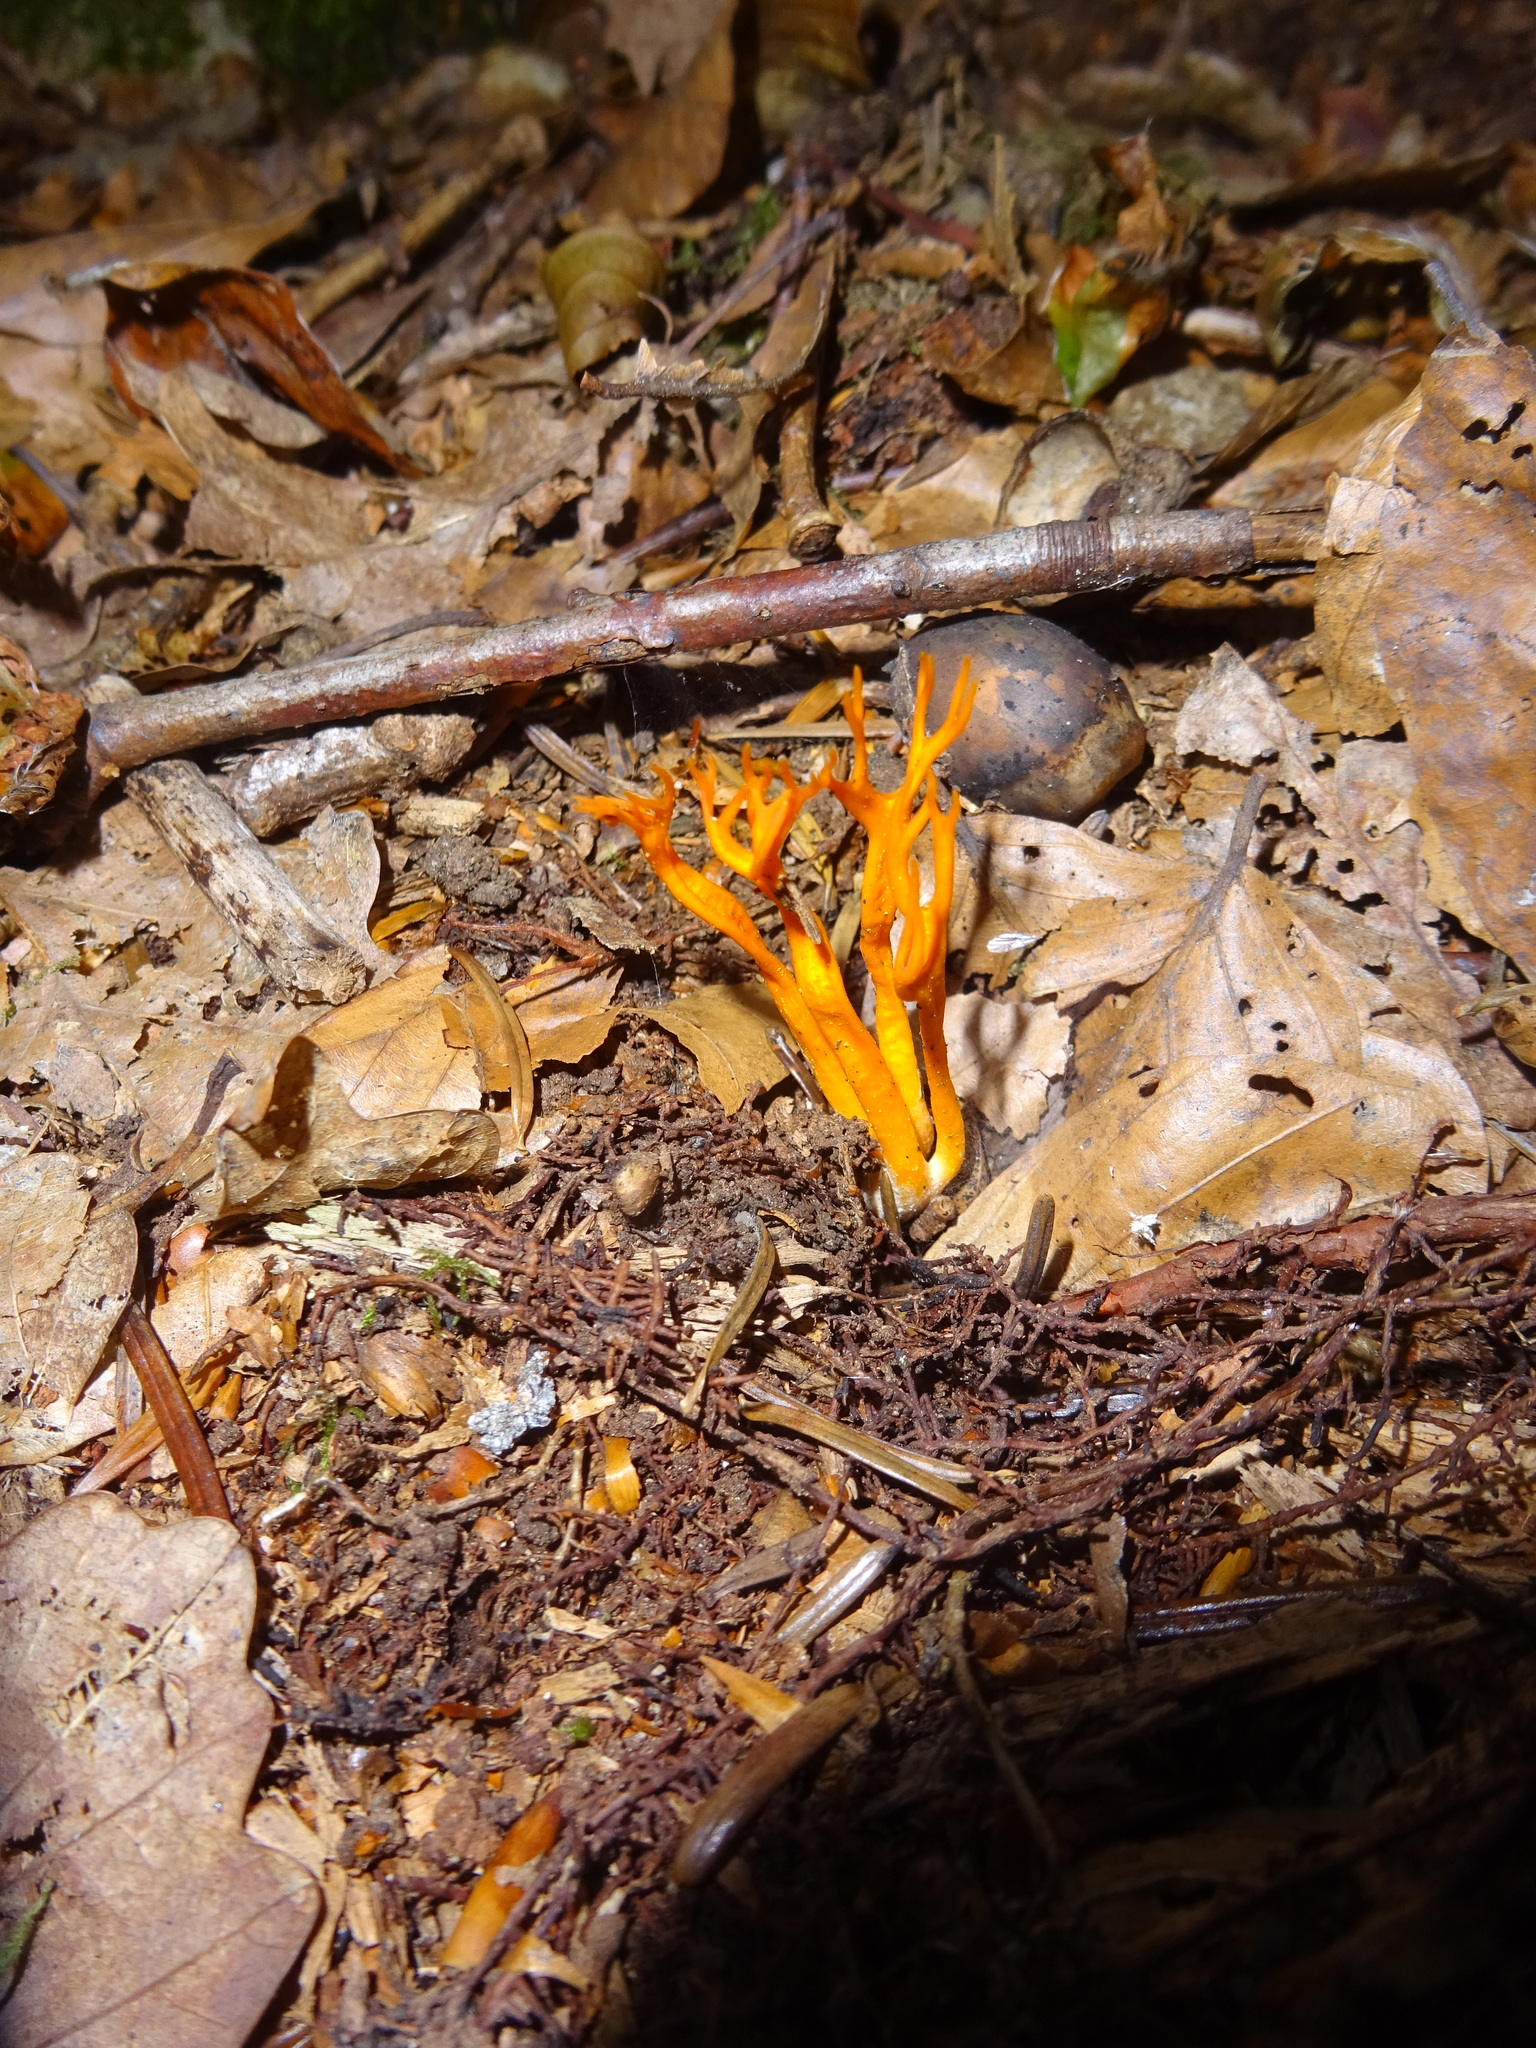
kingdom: Fungi
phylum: Basidiomycota
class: Dacrymycetes
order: Dacrymycetales
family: Dacrymycetaceae
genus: Calocera
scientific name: Calocera viscosa
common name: Yellow stagshorn
